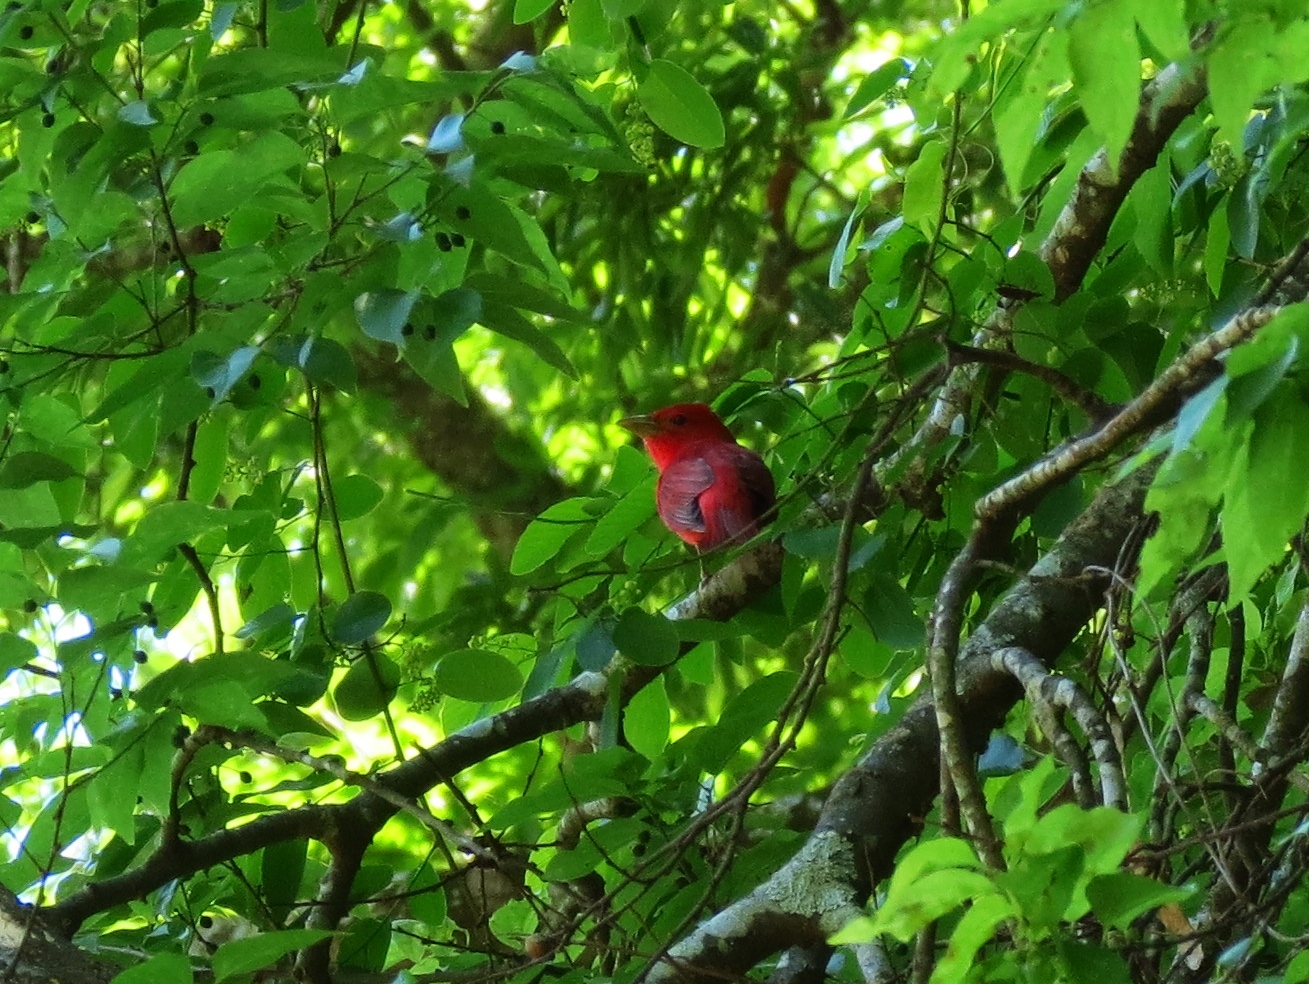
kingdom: Animalia
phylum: Chordata
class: Aves
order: Passeriformes
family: Cardinalidae
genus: Piranga
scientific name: Piranga rubra
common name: Summer tanager
